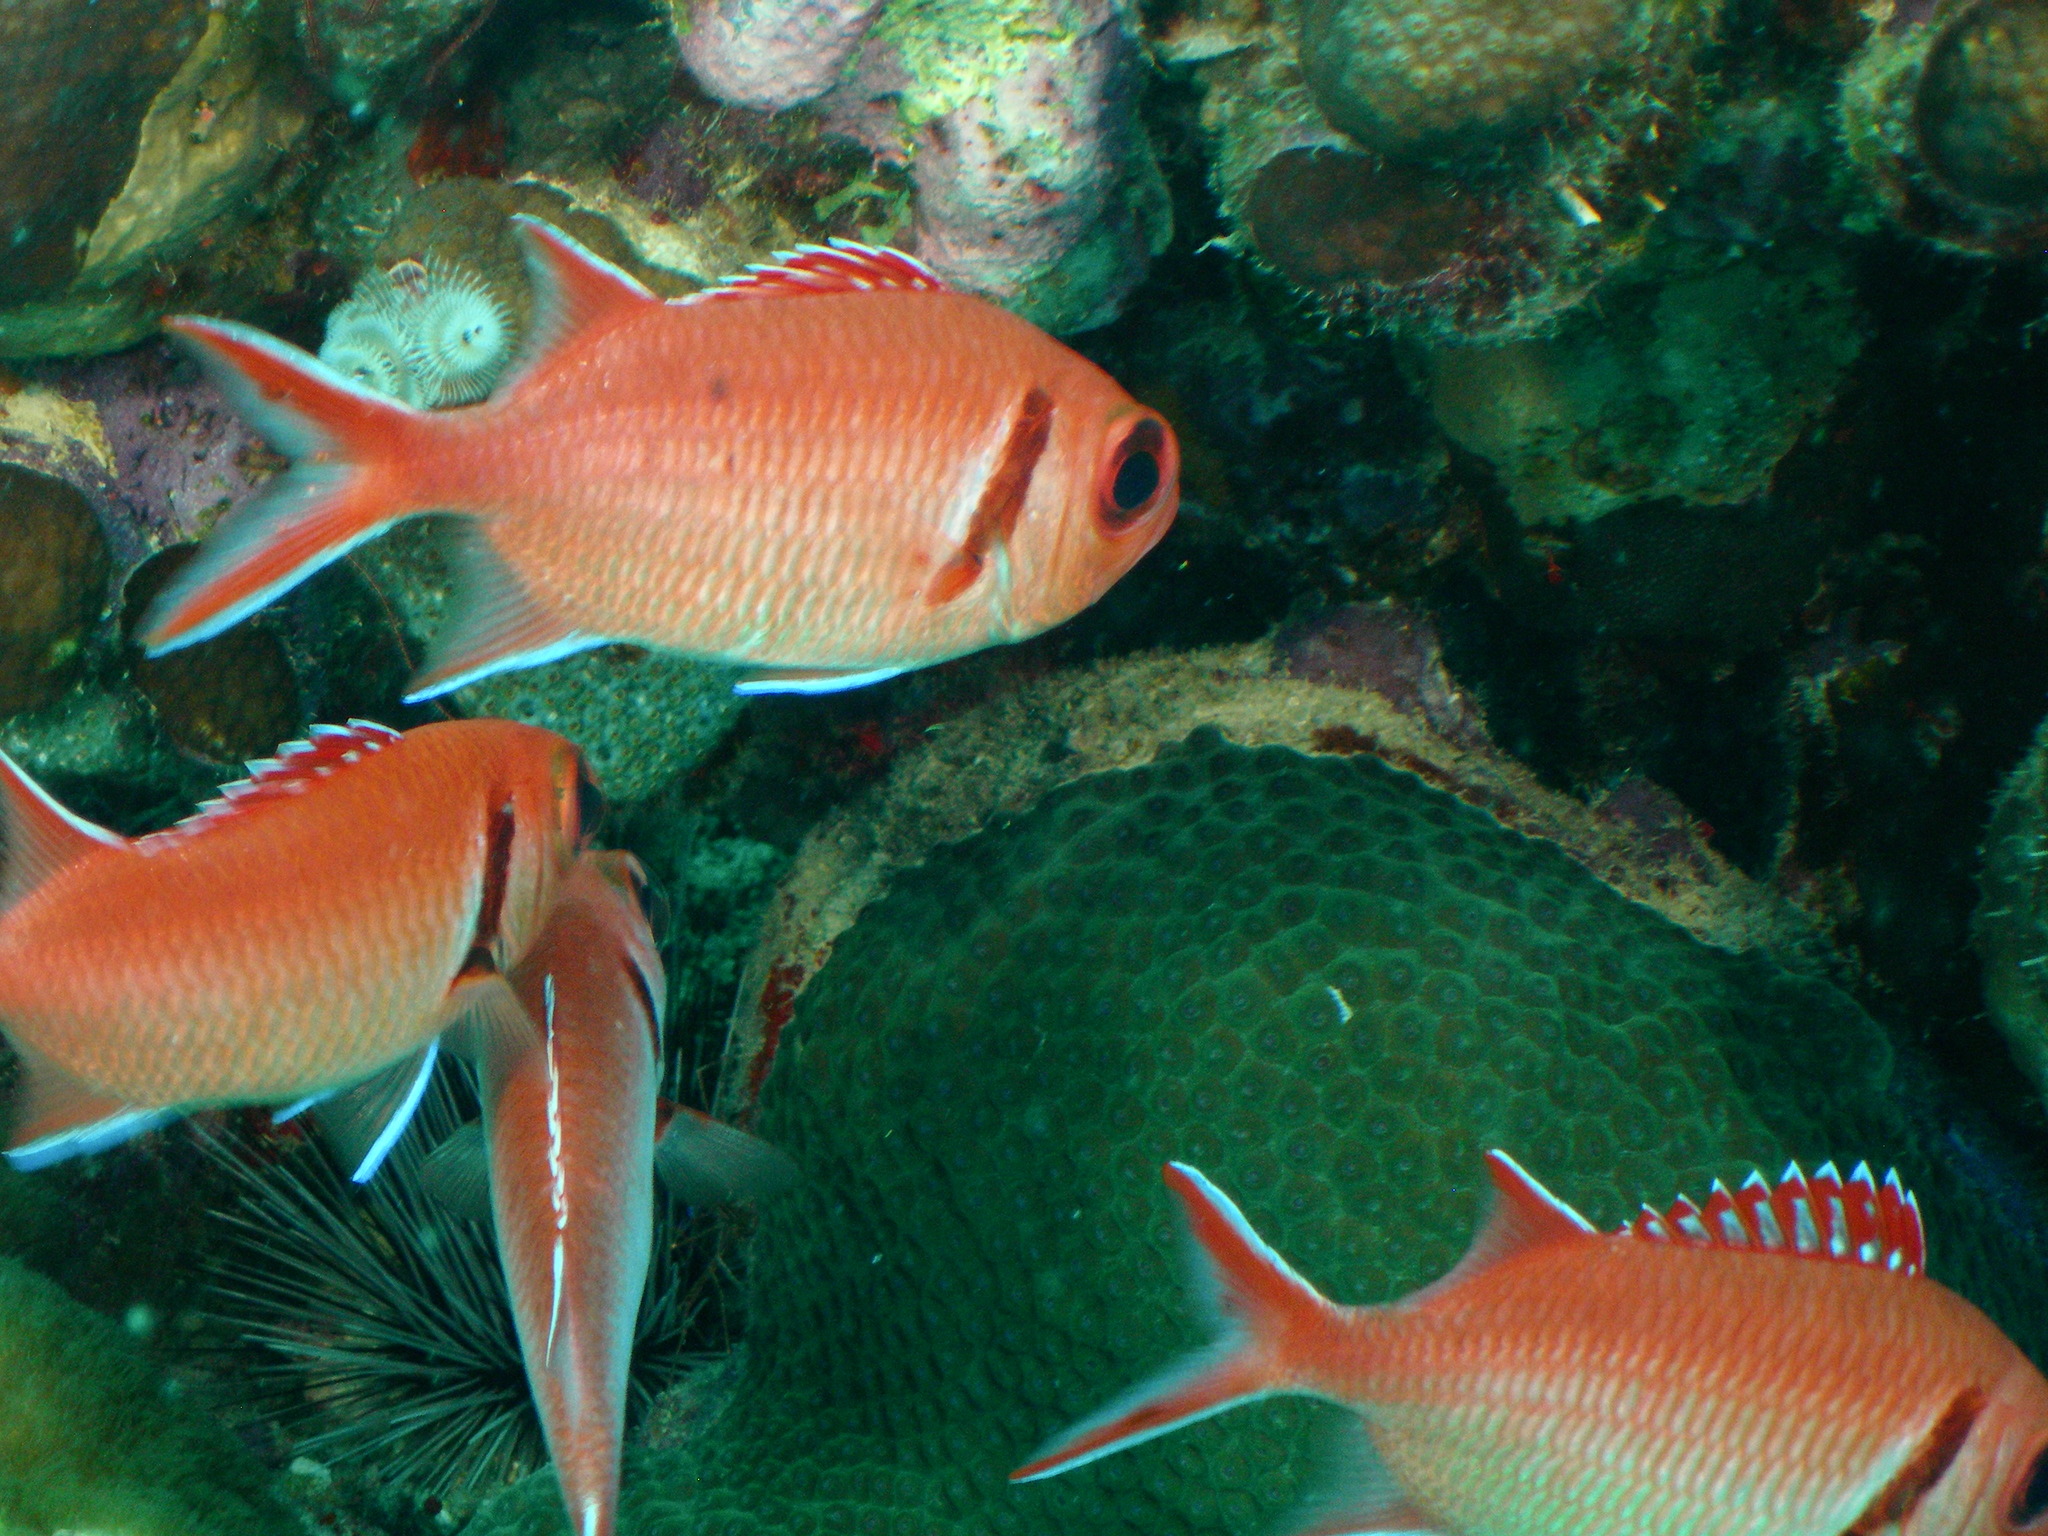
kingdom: Animalia
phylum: Chordata
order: Beryciformes
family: Holocentridae
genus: Myripristis
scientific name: Myripristis jacobus
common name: Blackbar soldierfish
